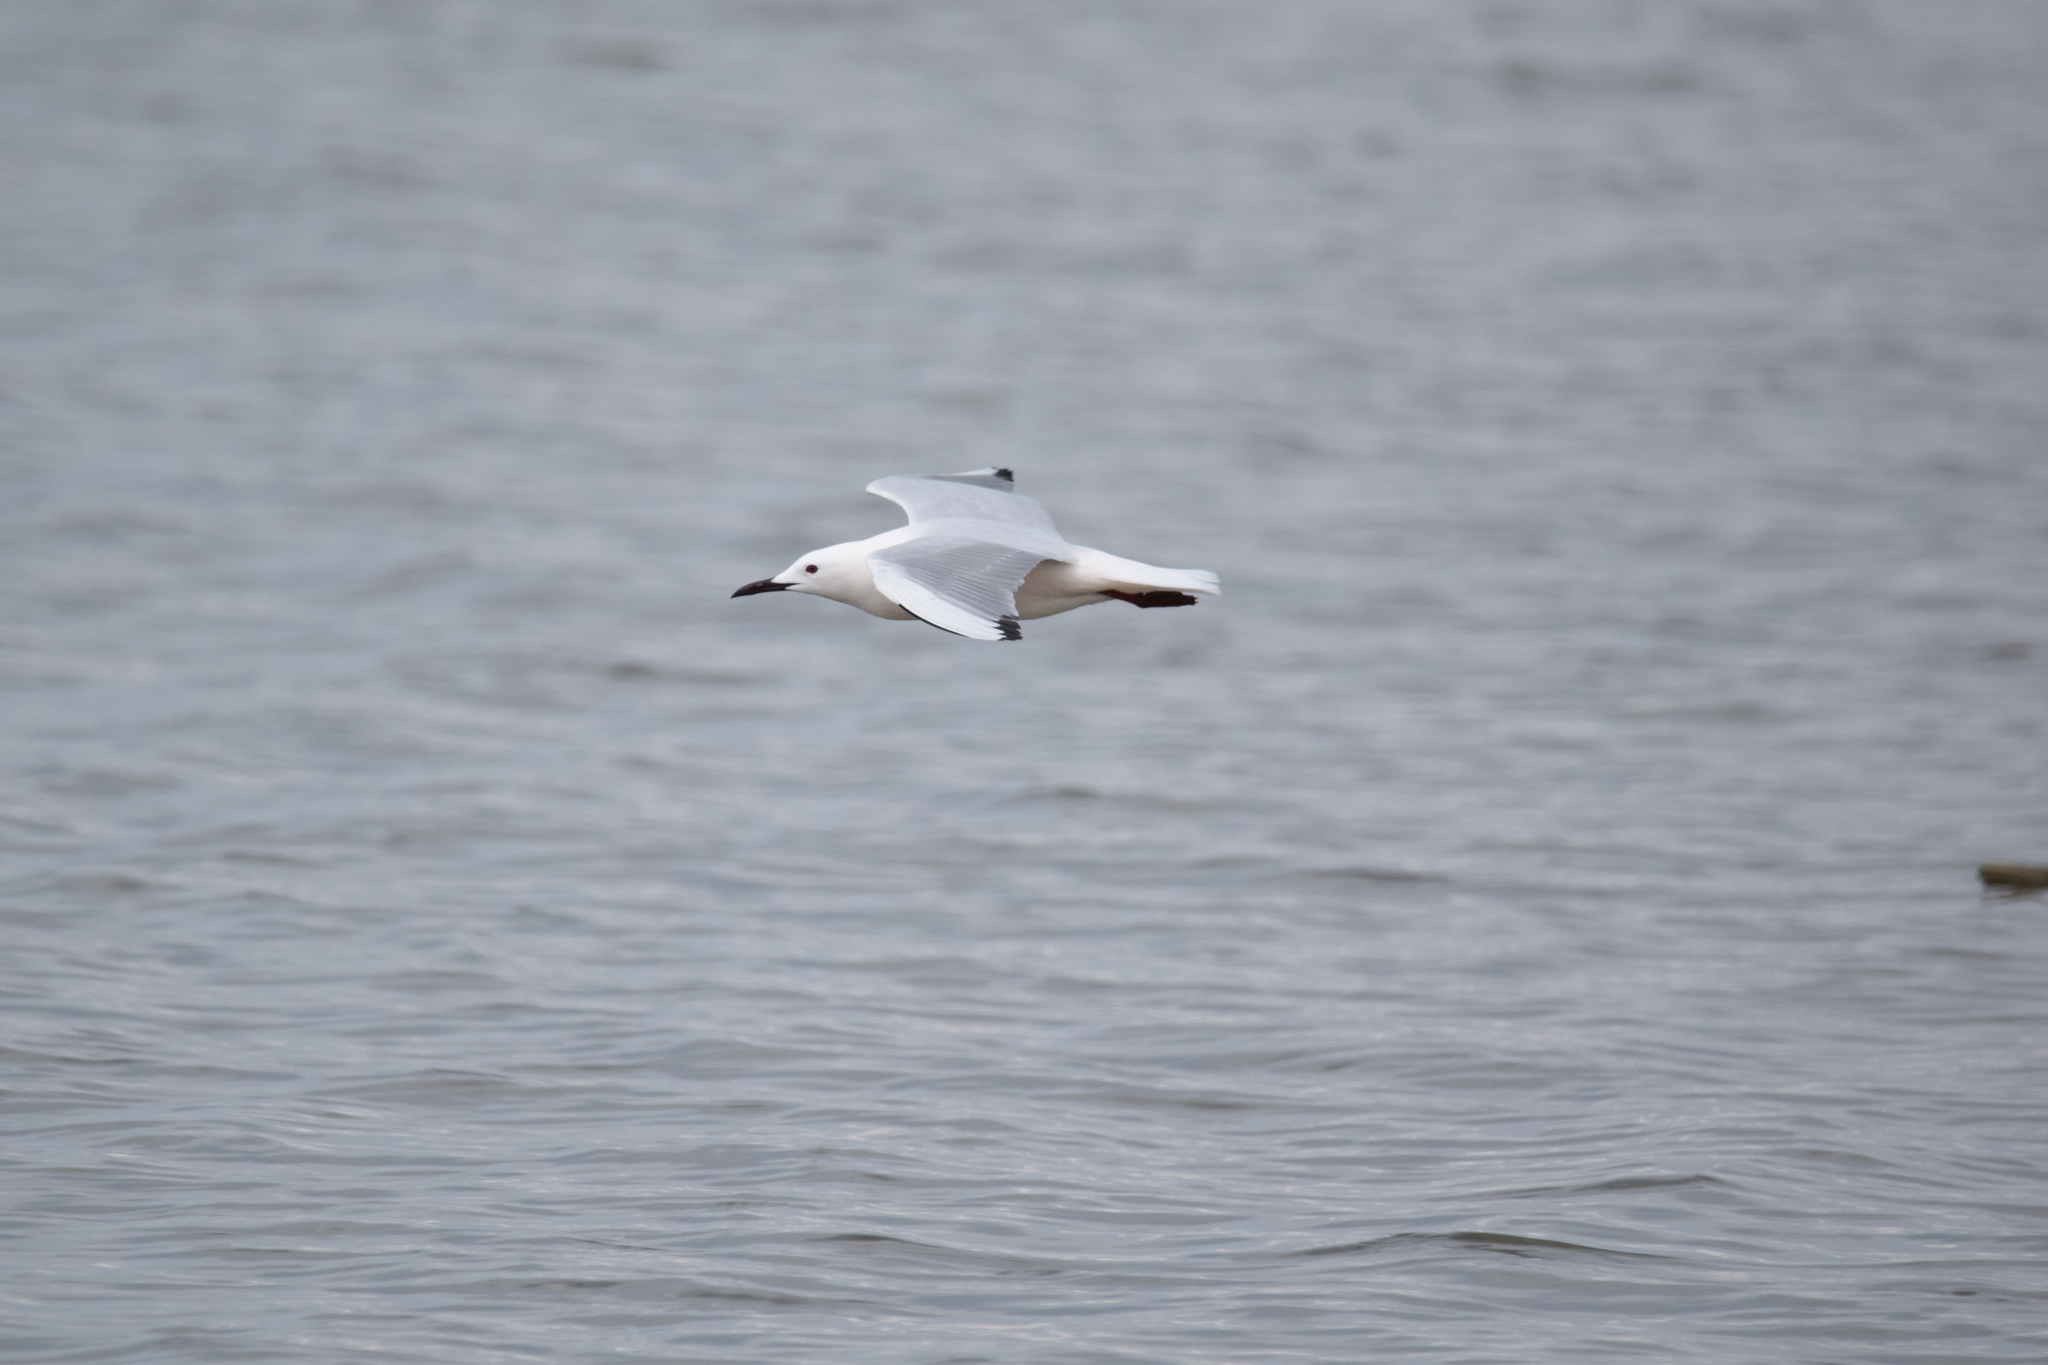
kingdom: Animalia
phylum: Chordata
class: Aves
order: Charadriiformes
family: Laridae
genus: Chroicocephalus
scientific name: Chroicocephalus genei
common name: Slender-billed gull
